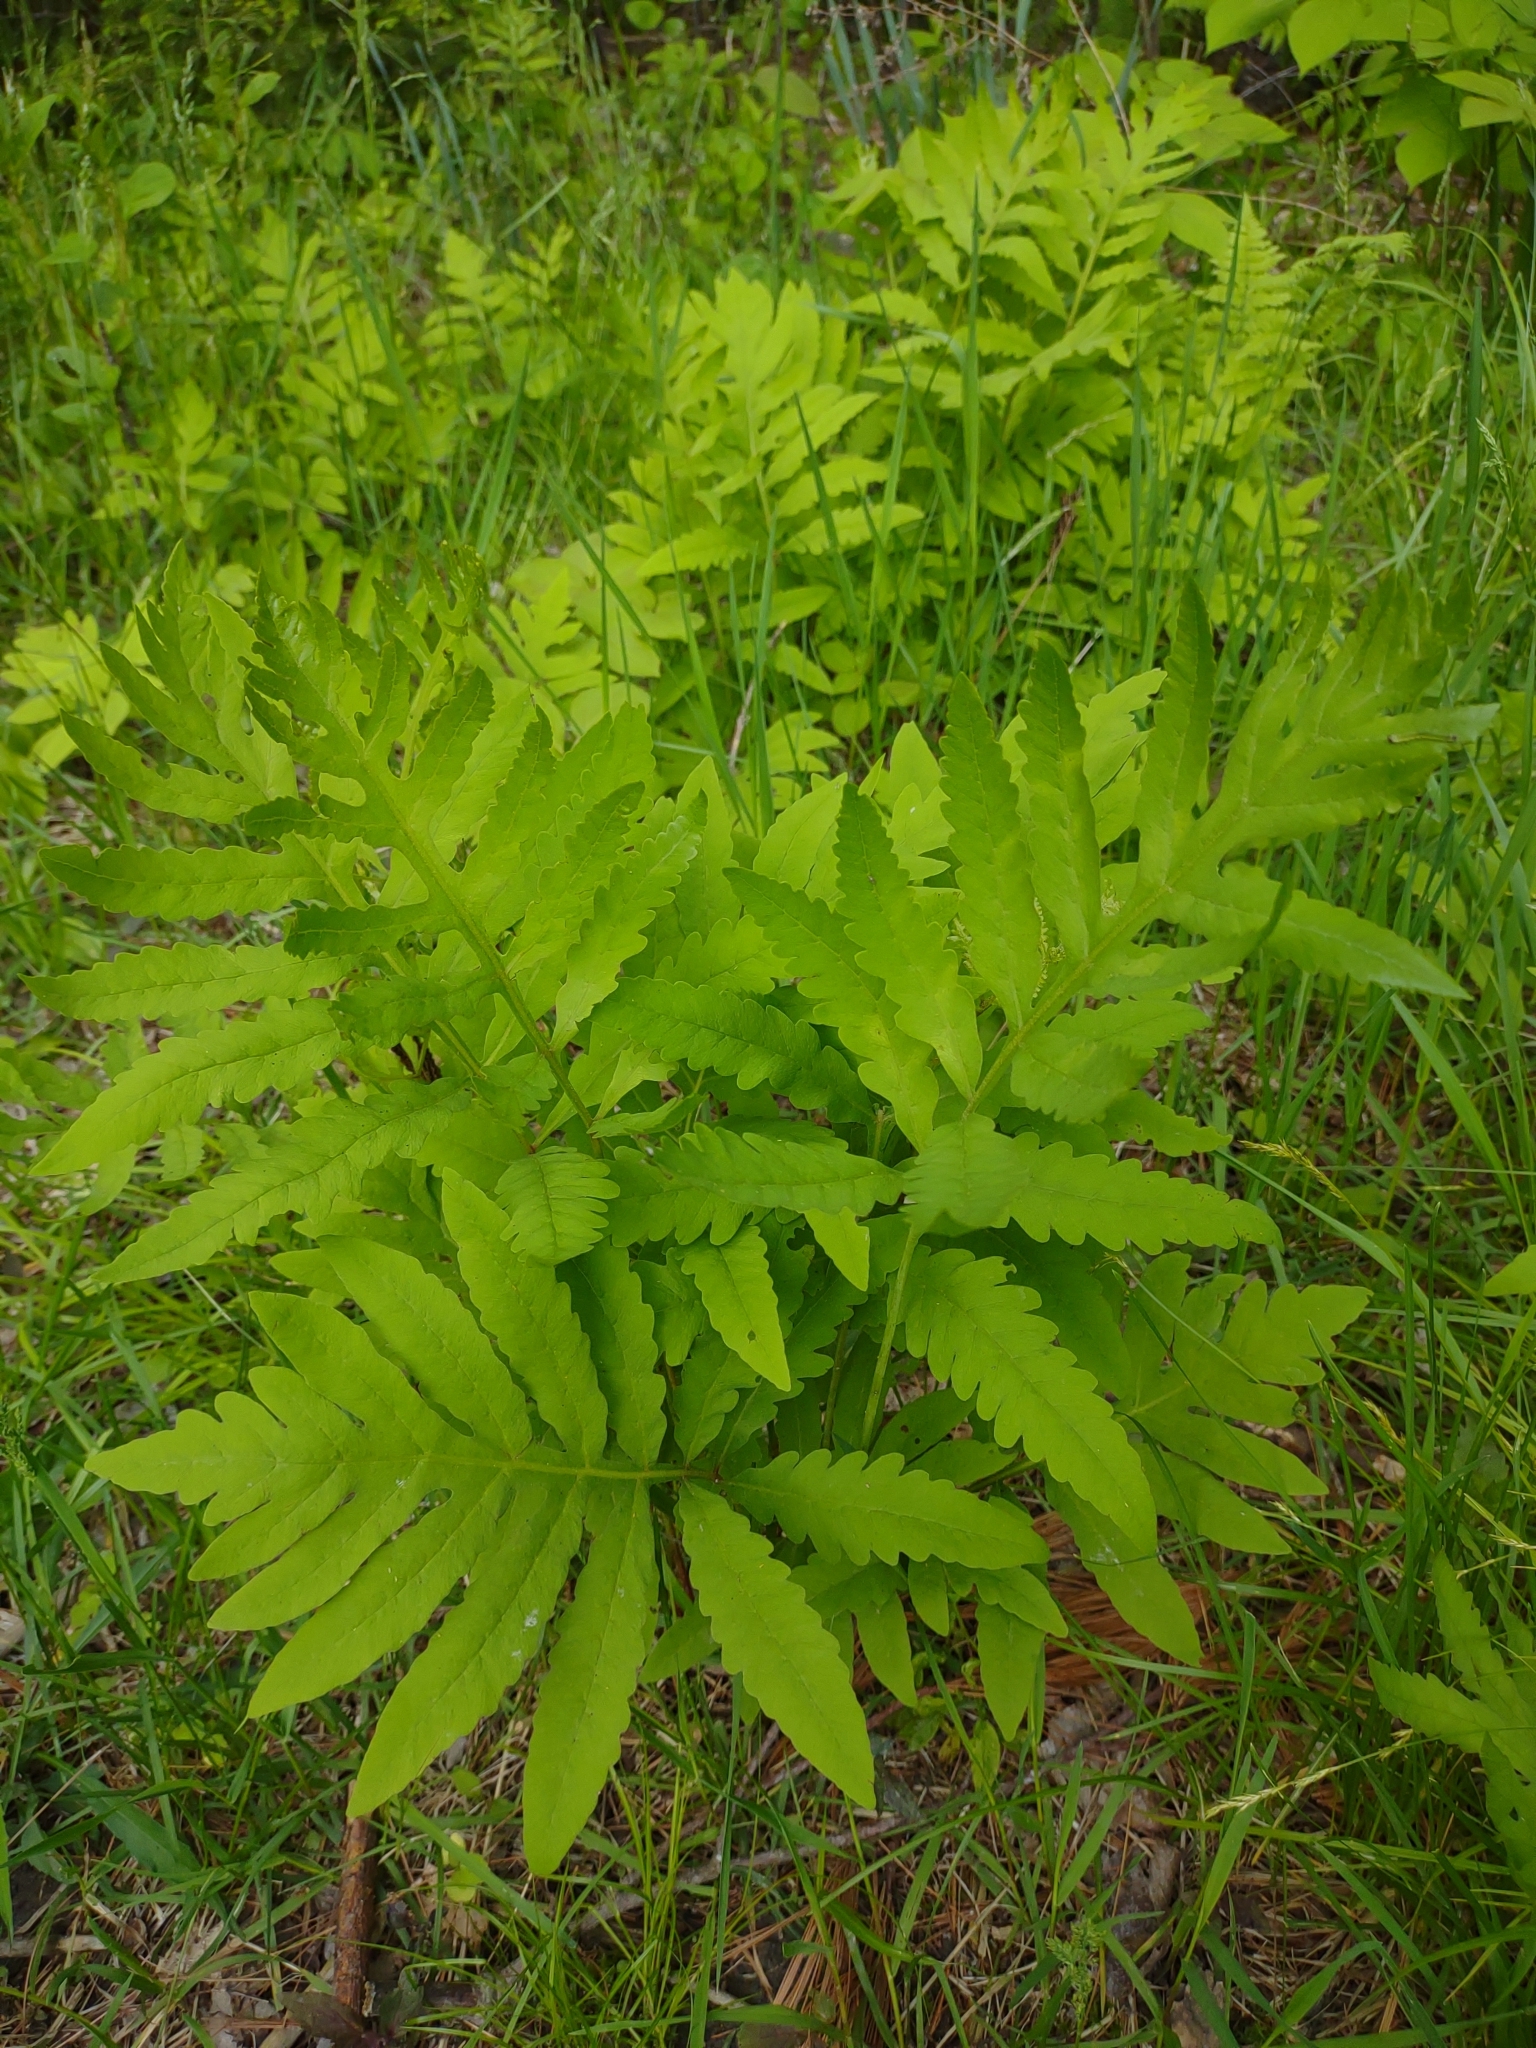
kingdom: Plantae
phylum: Tracheophyta
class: Polypodiopsida
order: Polypodiales
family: Onocleaceae
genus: Onoclea
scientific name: Onoclea sensibilis
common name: Sensitive fern
